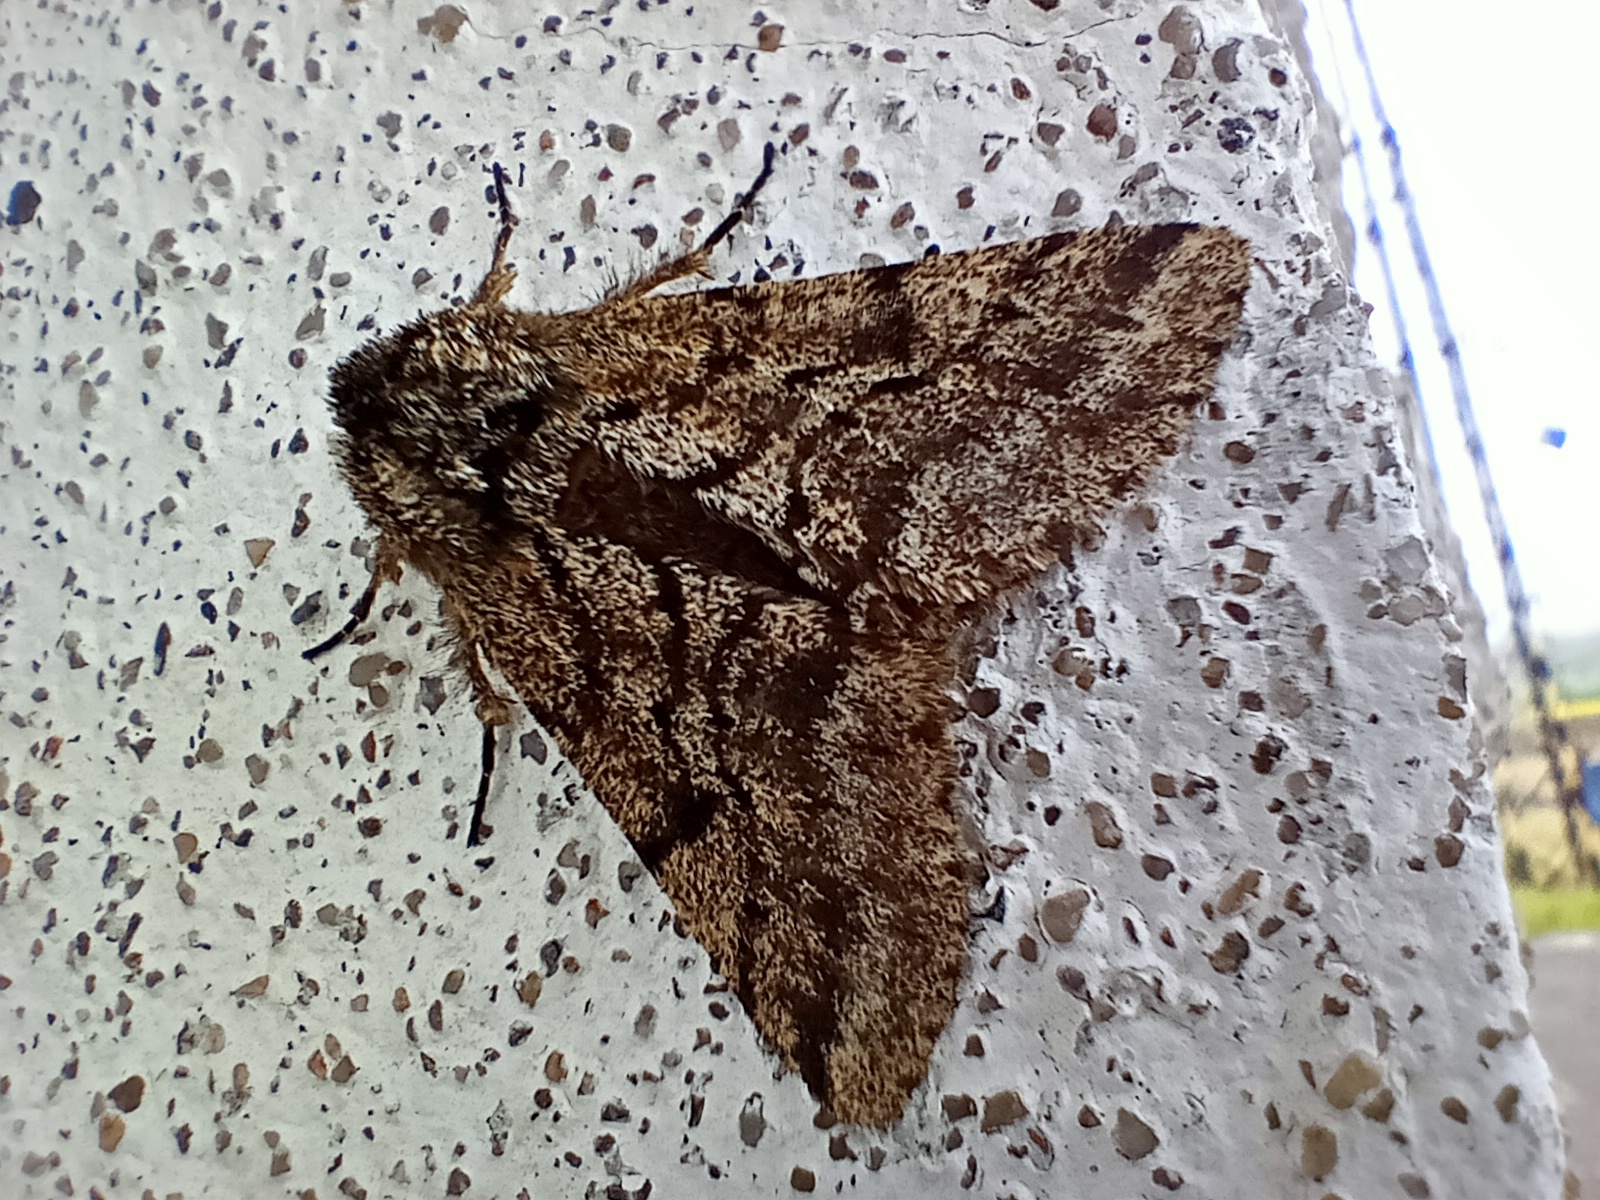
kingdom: Animalia
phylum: Arthropoda
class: Insecta
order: Lepidoptera
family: Geometridae
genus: Lycia
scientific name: Lycia hirtaria
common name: Brindled beauty
